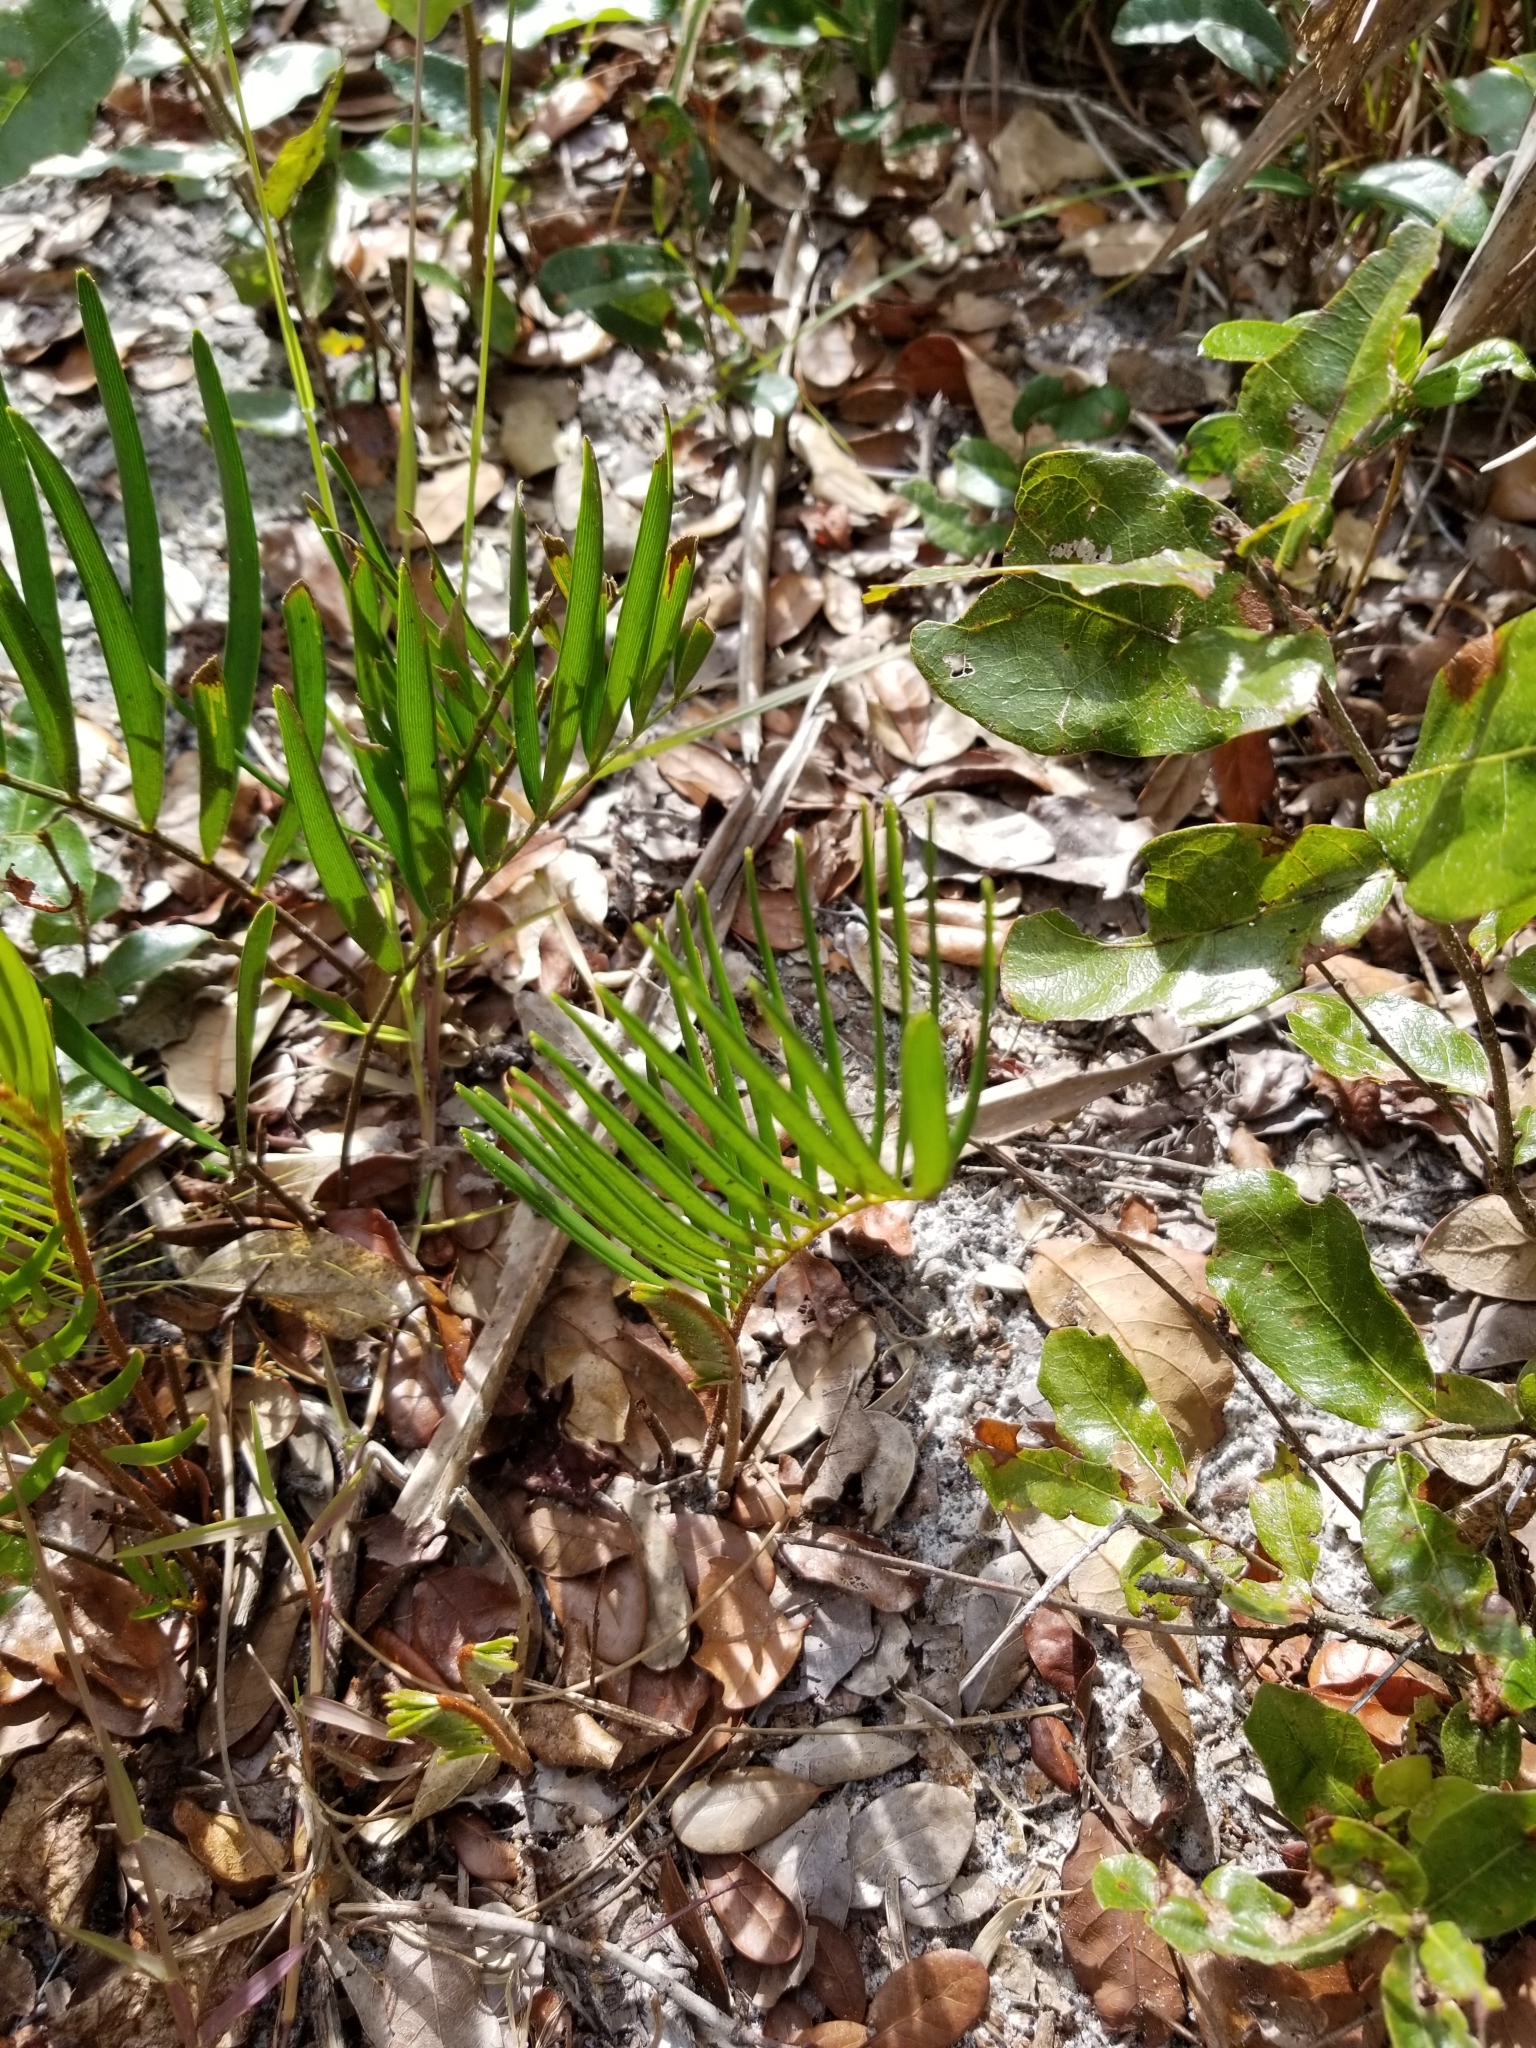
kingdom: Plantae
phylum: Tracheophyta
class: Cycadopsida
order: Cycadales
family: Zamiaceae
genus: Zamia
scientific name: Zamia integrifolia
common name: Florida arrowroot
